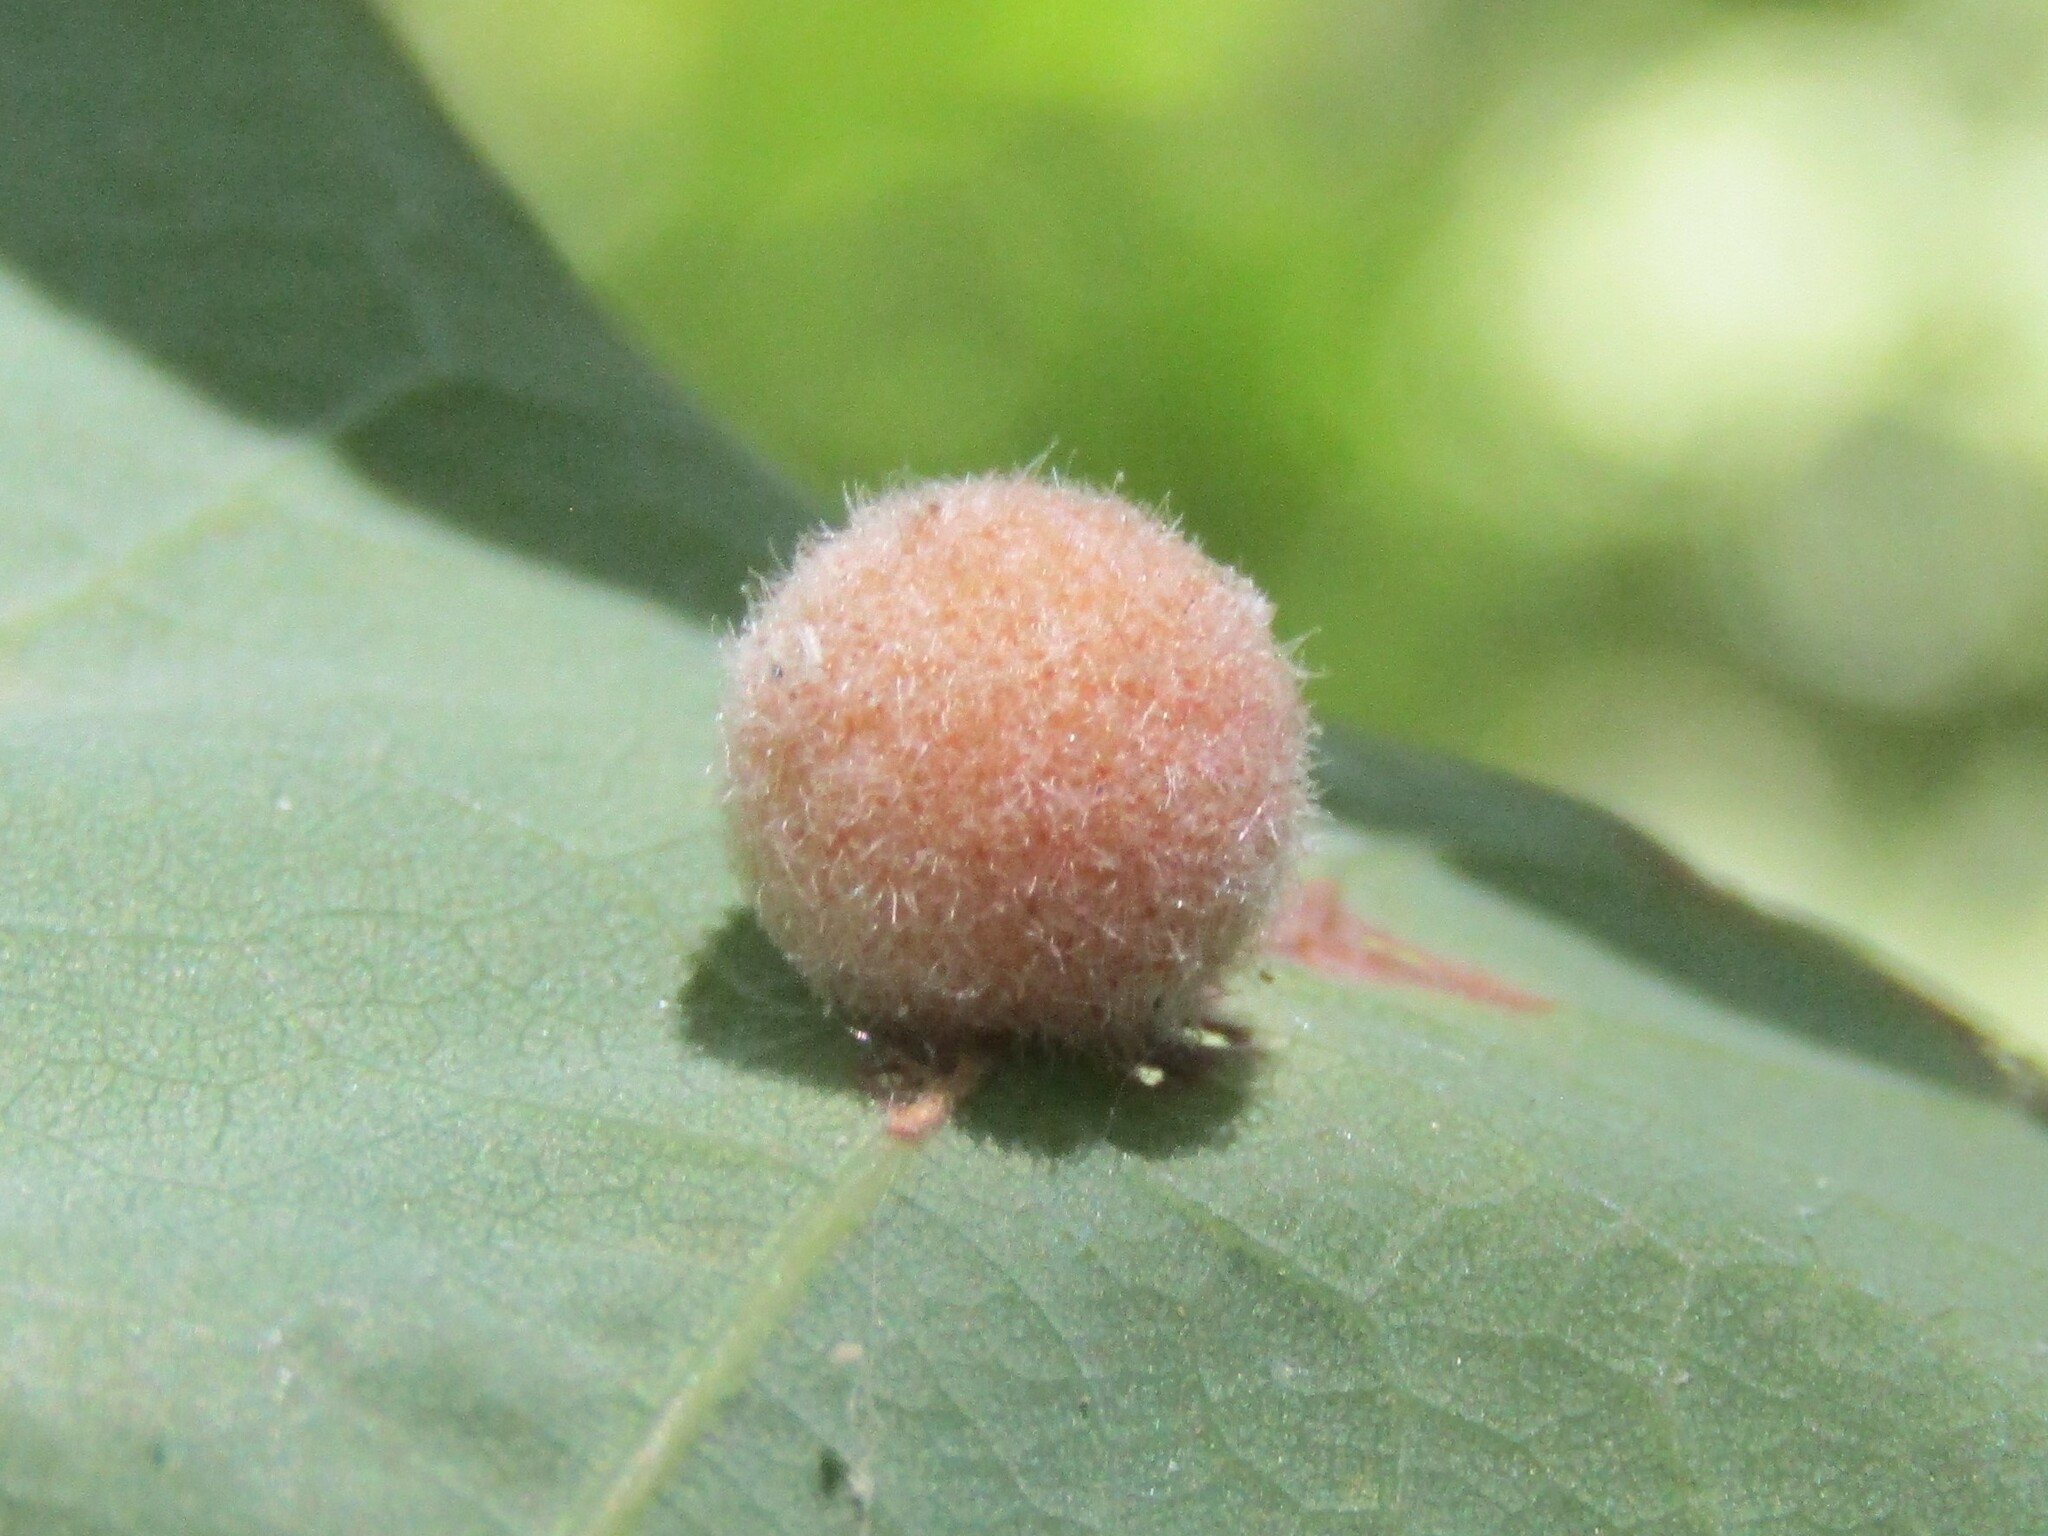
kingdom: Animalia
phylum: Arthropoda
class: Insecta
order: Hymenoptera
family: Cynipidae
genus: Philonix
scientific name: Philonix fulvicollis
